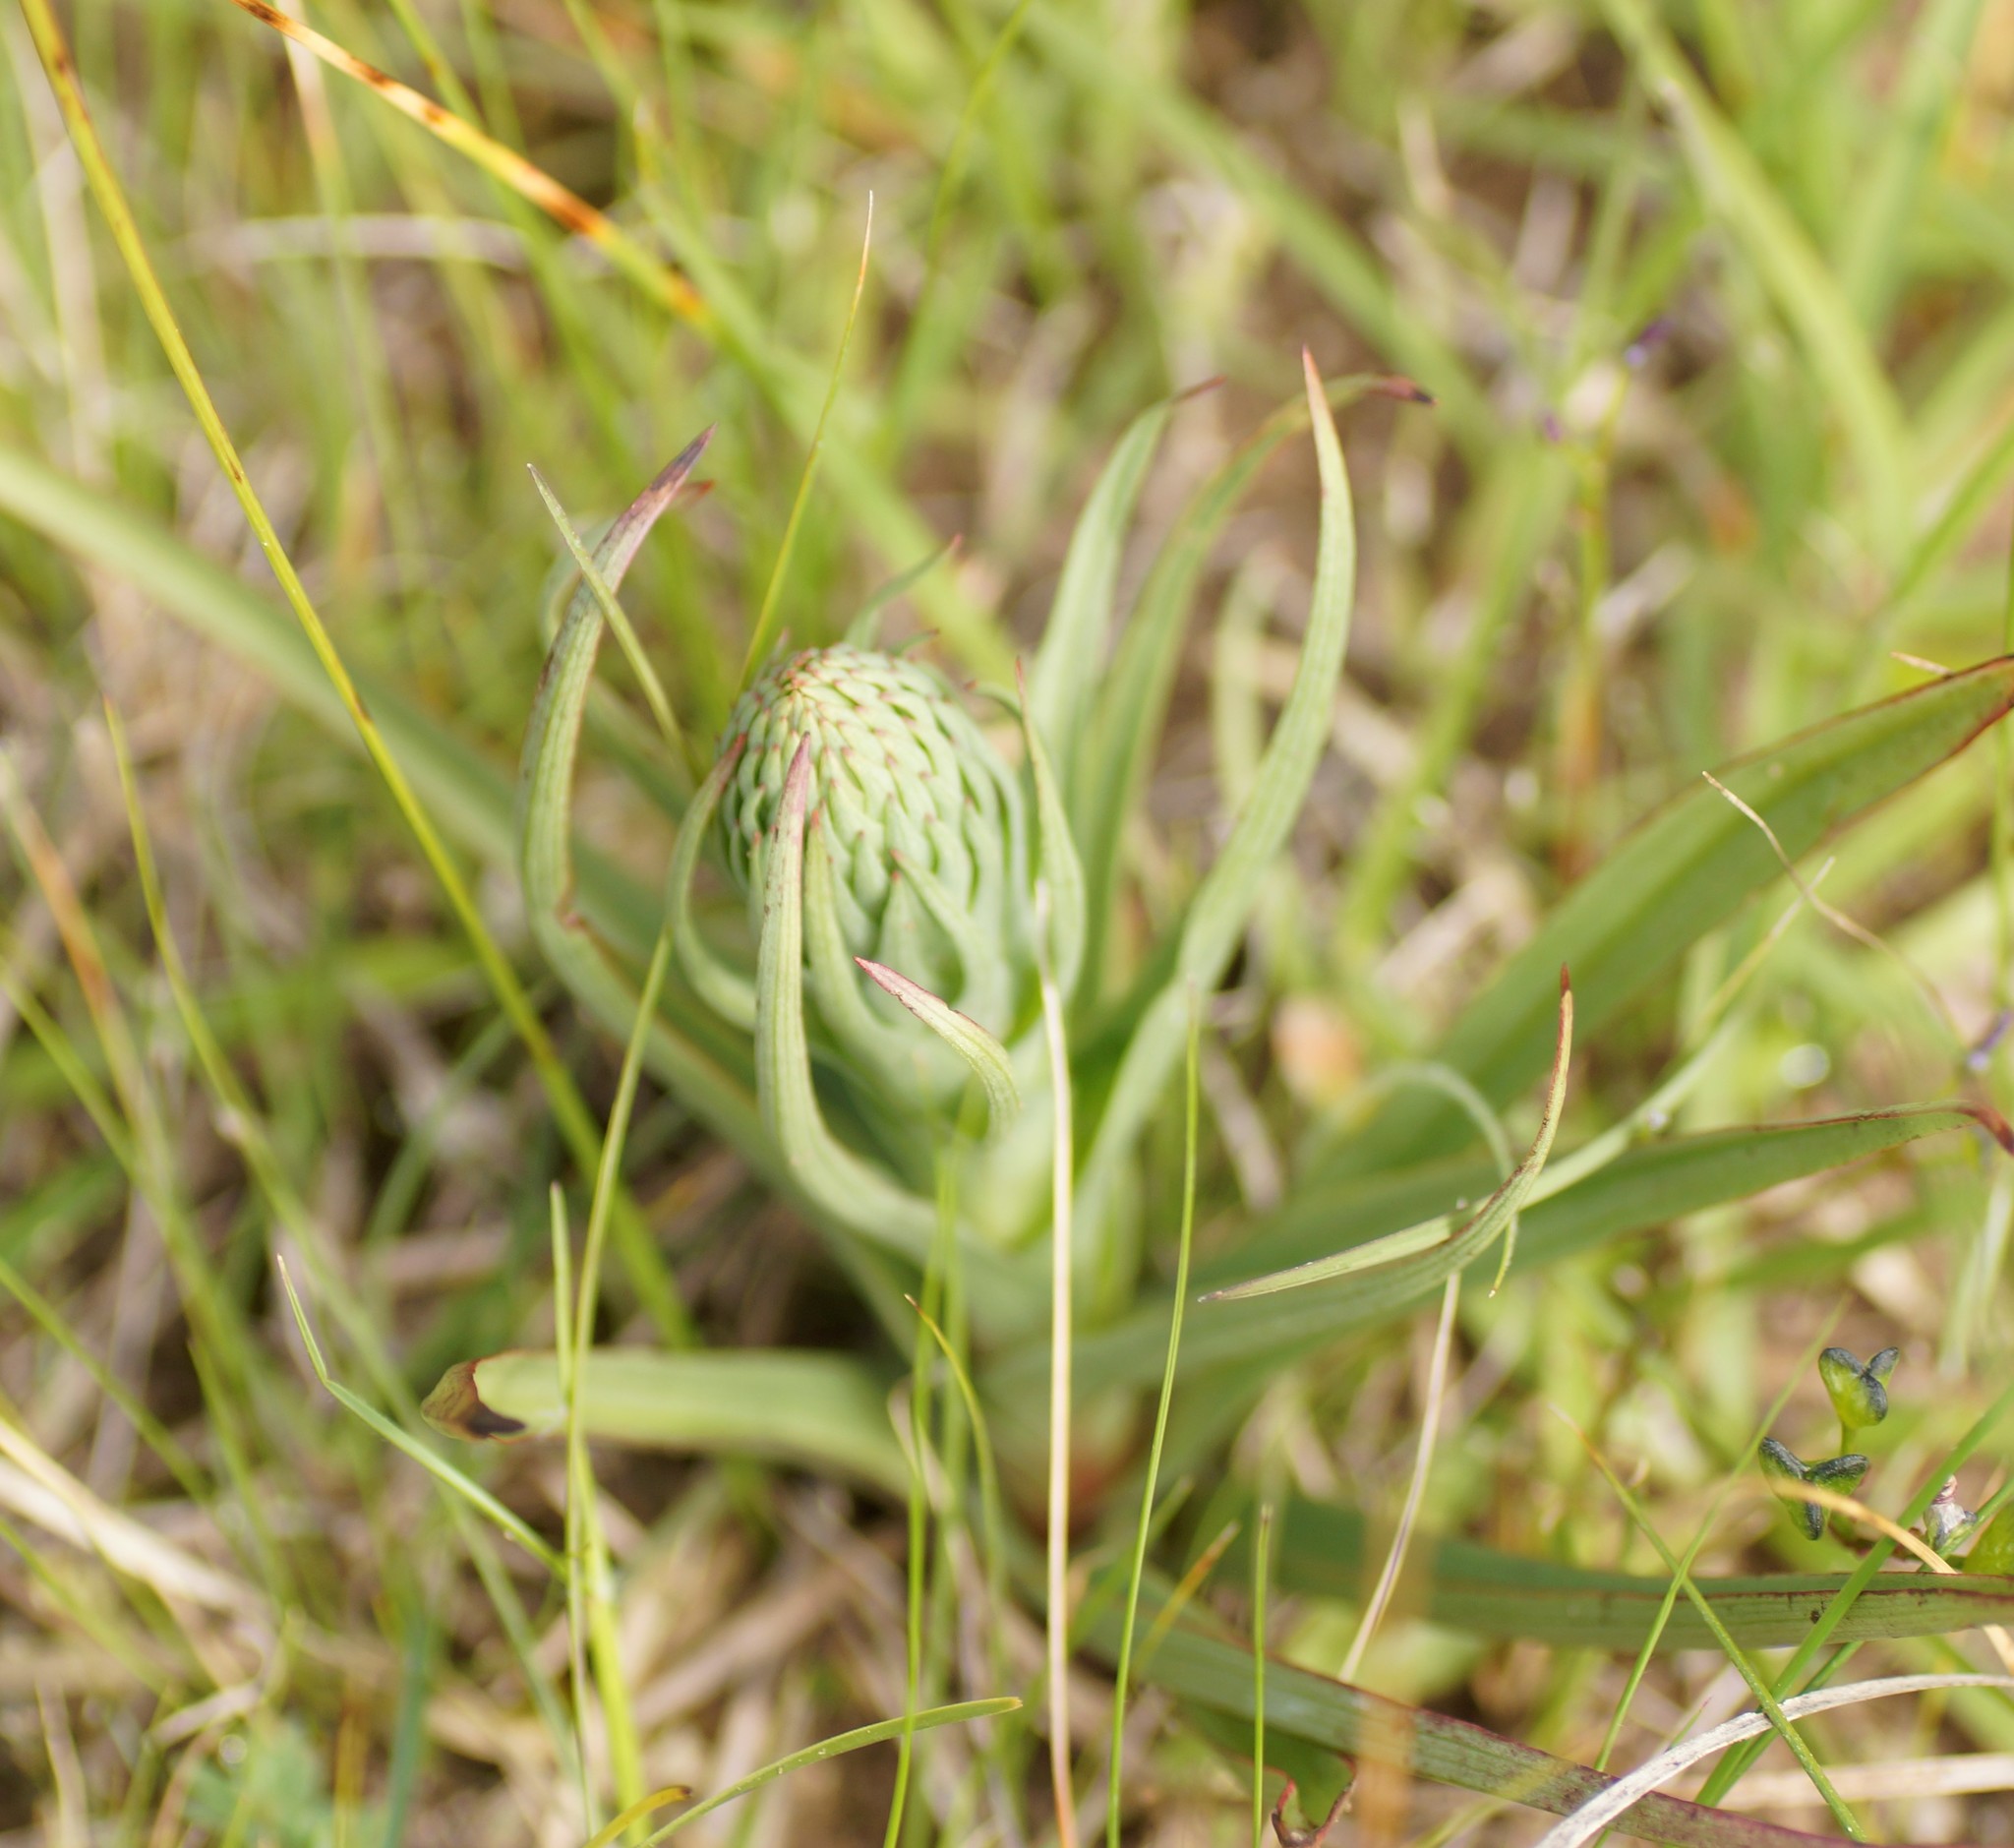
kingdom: Plantae
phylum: Tracheophyta
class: Liliopsida
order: Asparagales
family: Orchidaceae
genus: Disa
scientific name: Disa bracteata
